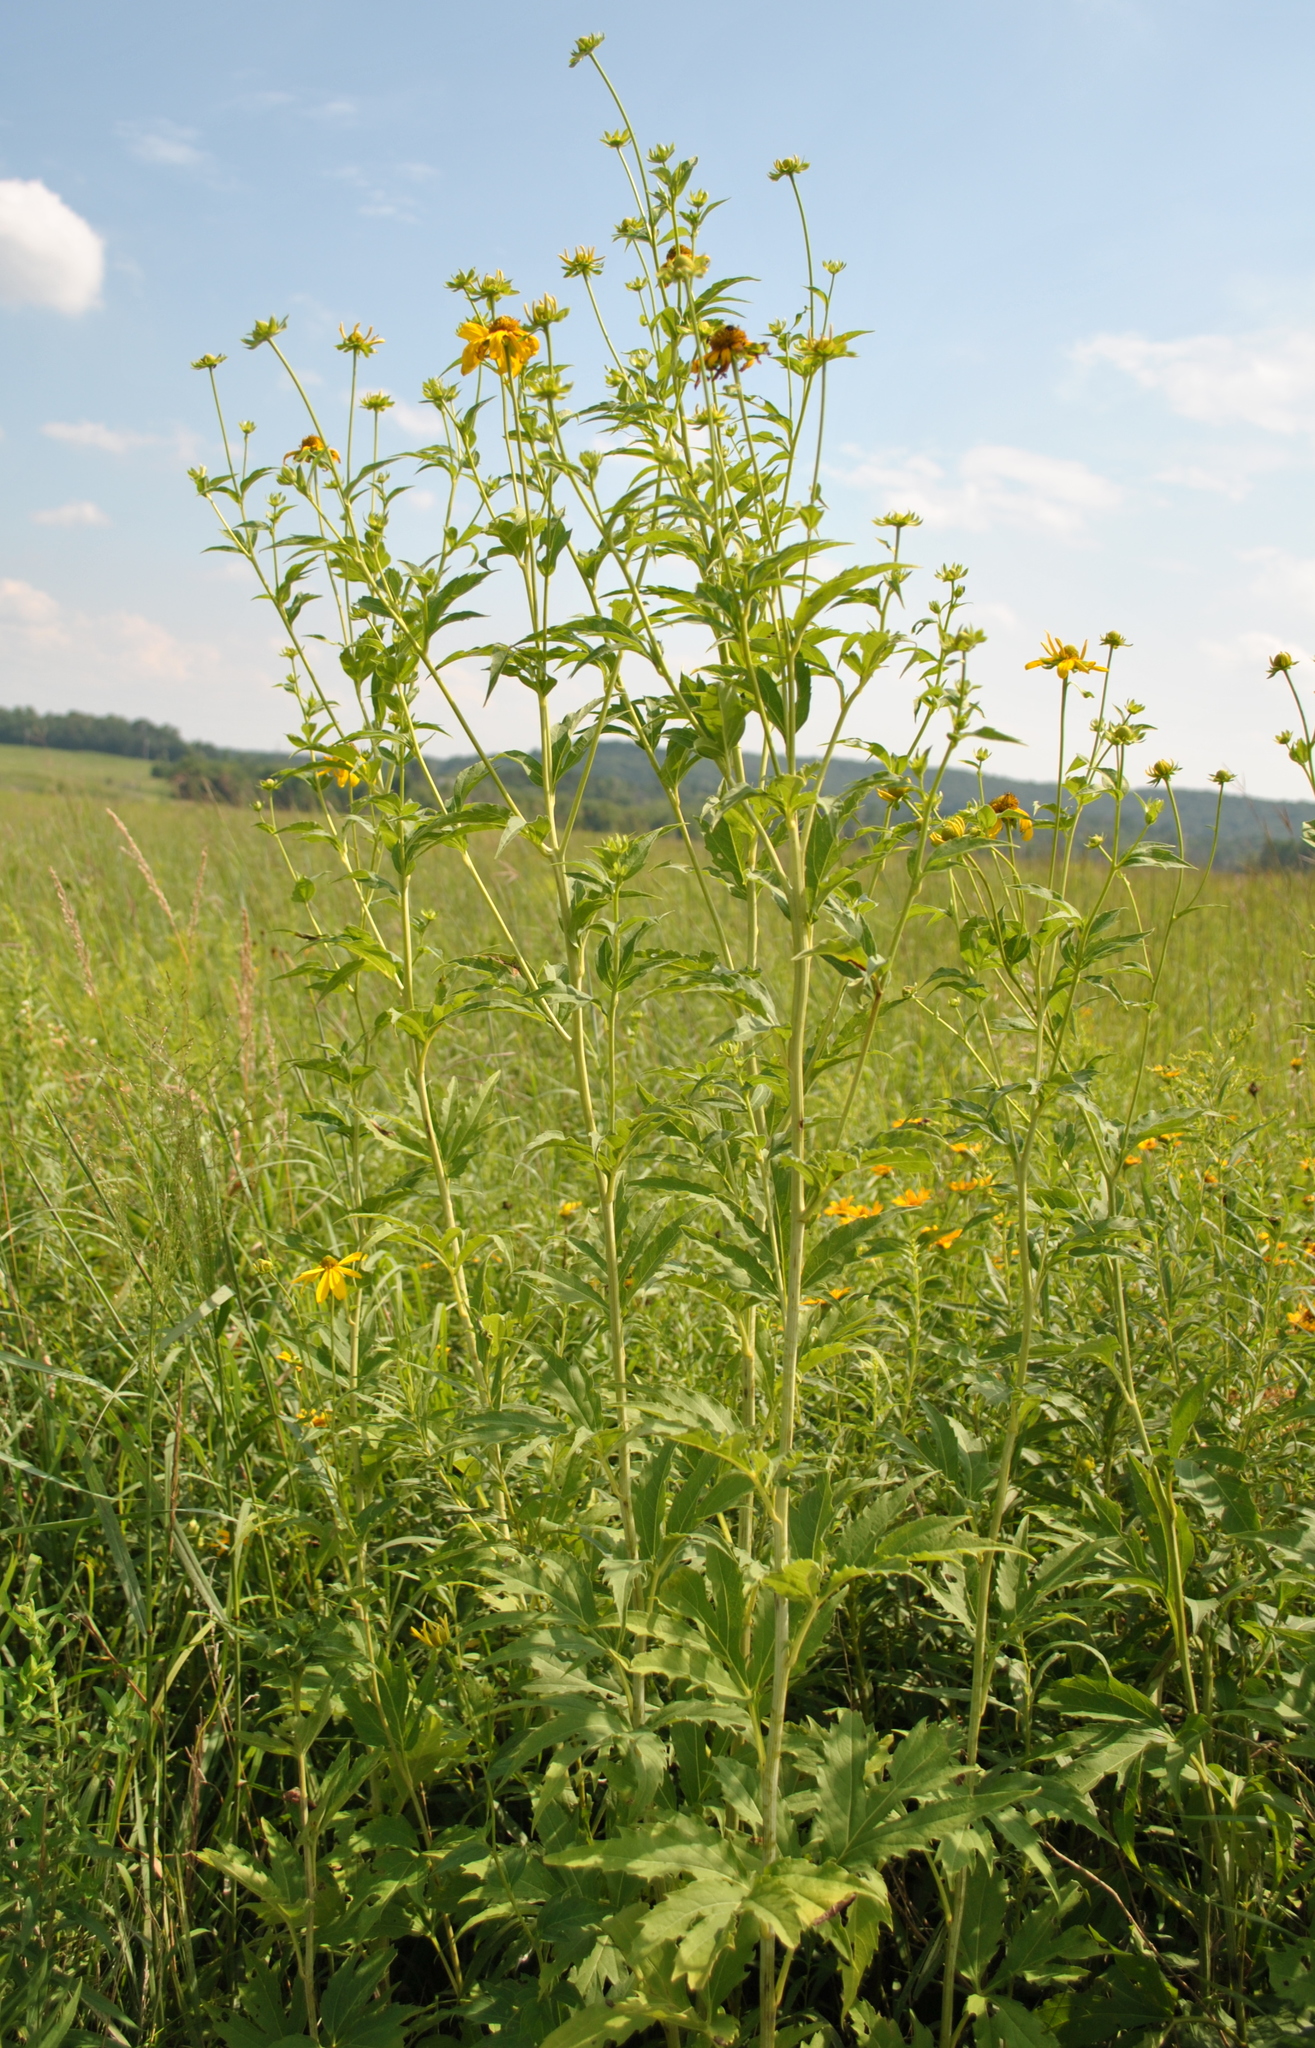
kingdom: Plantae
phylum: Tracheophyta
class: Magnoliopsida
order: Asterales
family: Asteraceae
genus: Rudbeckia
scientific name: Rudbeckia laciniata
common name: Coneflower
